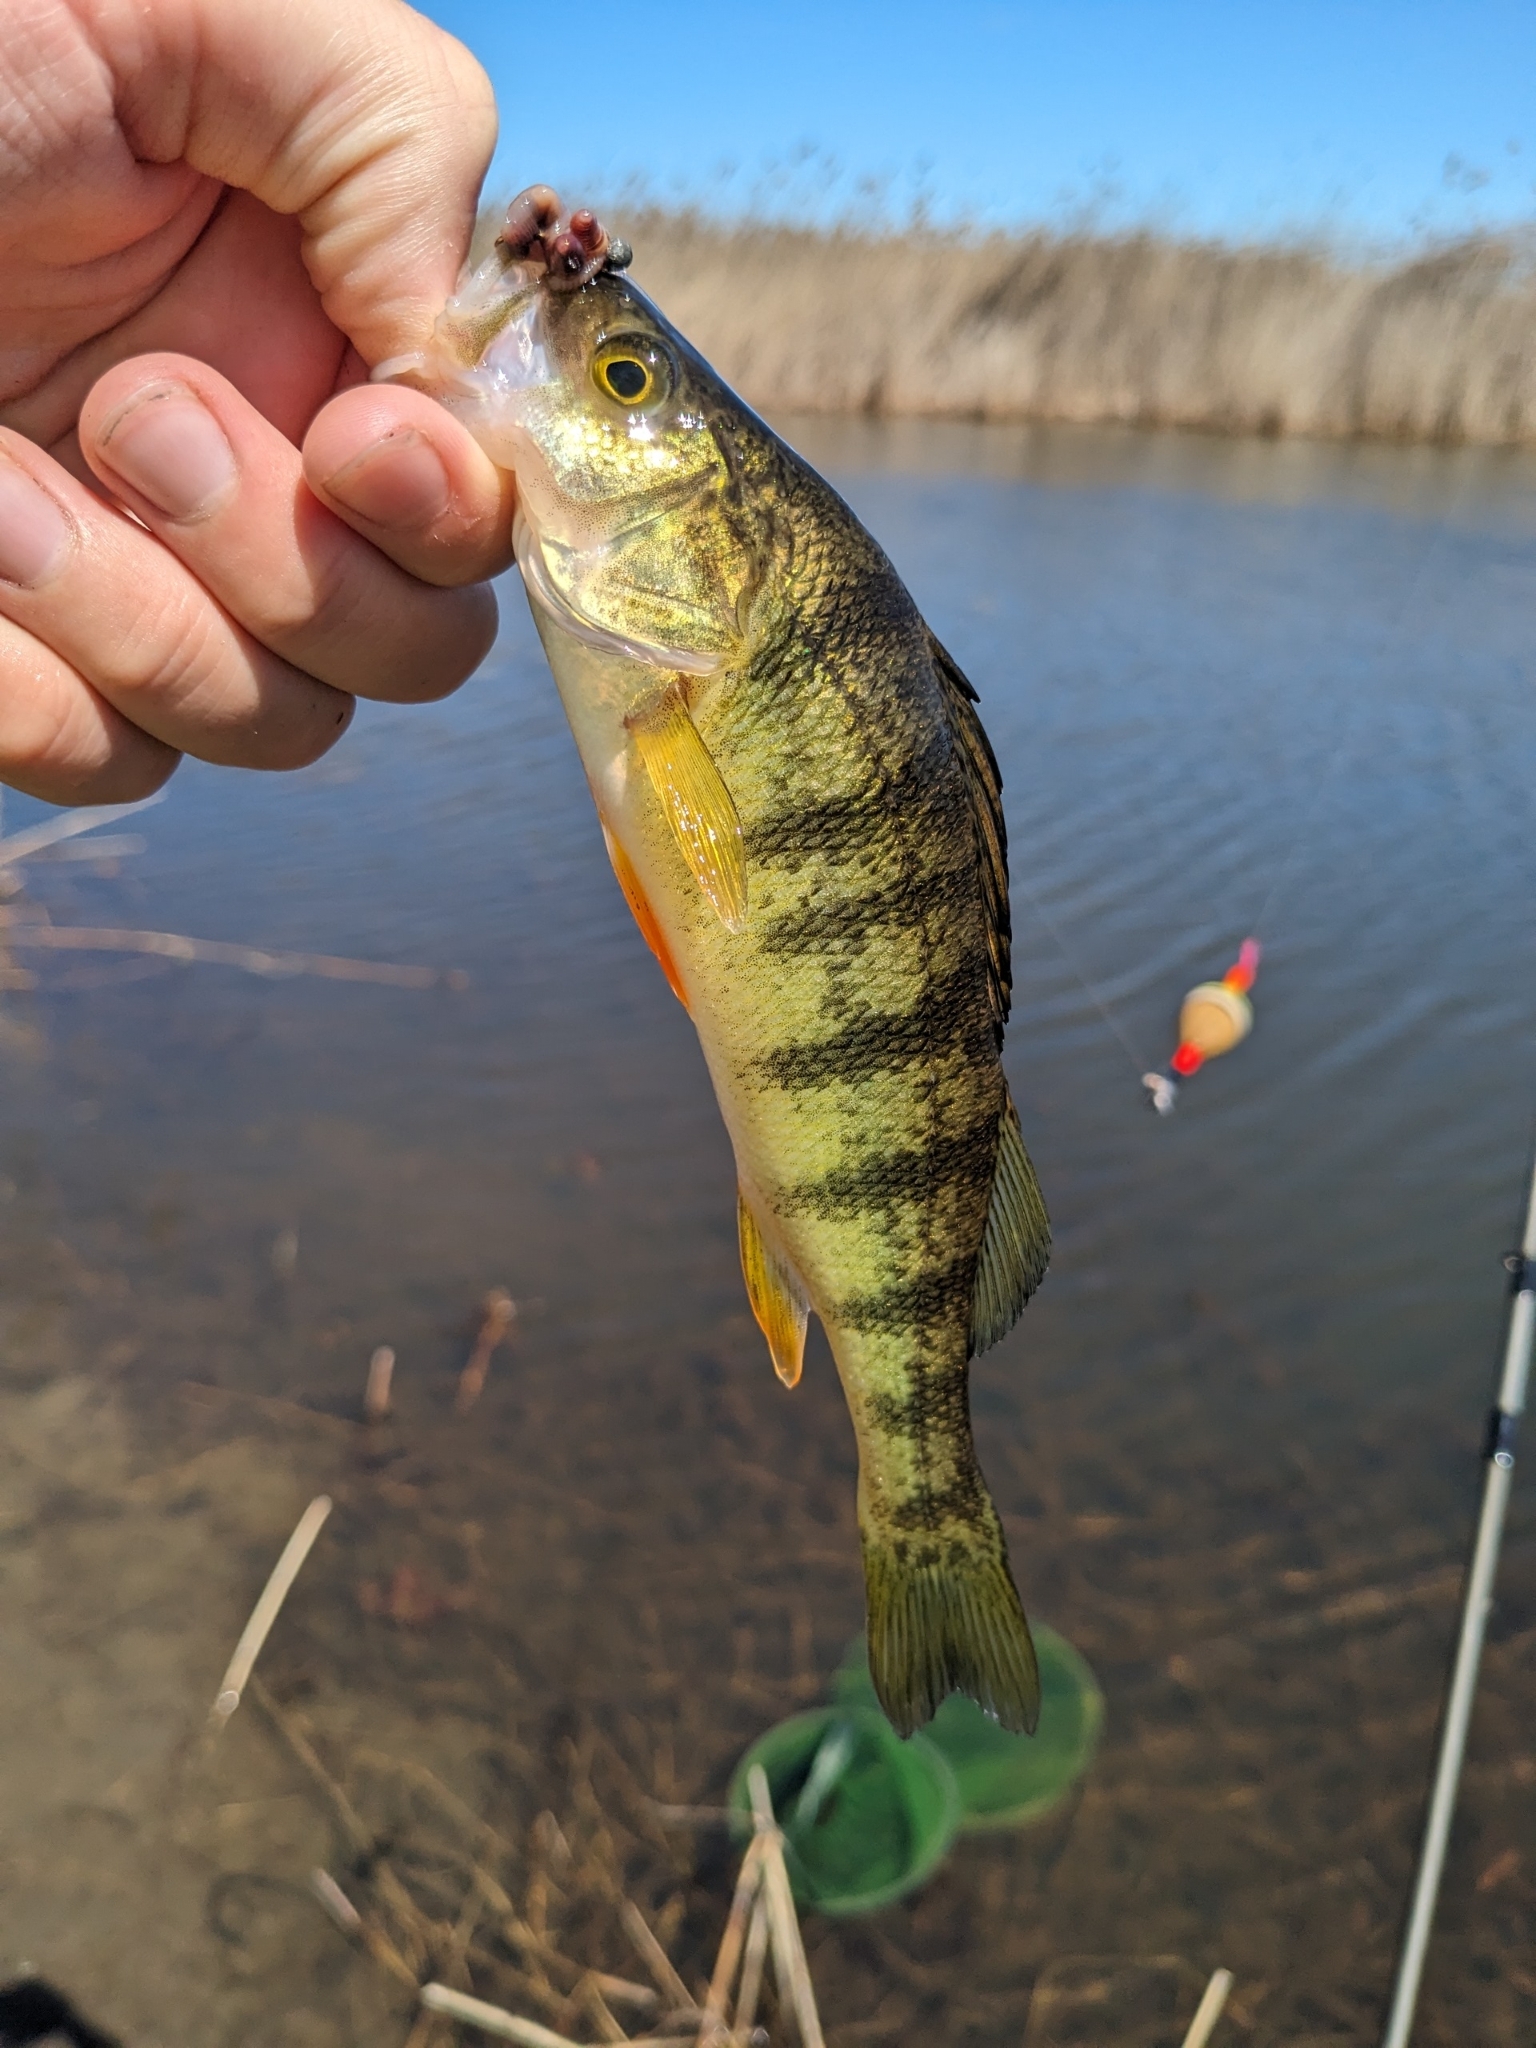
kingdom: Animalia
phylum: Chordata
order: Perciformes
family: Percidae
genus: Perca
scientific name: Perca flavescens
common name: Yellow perch
